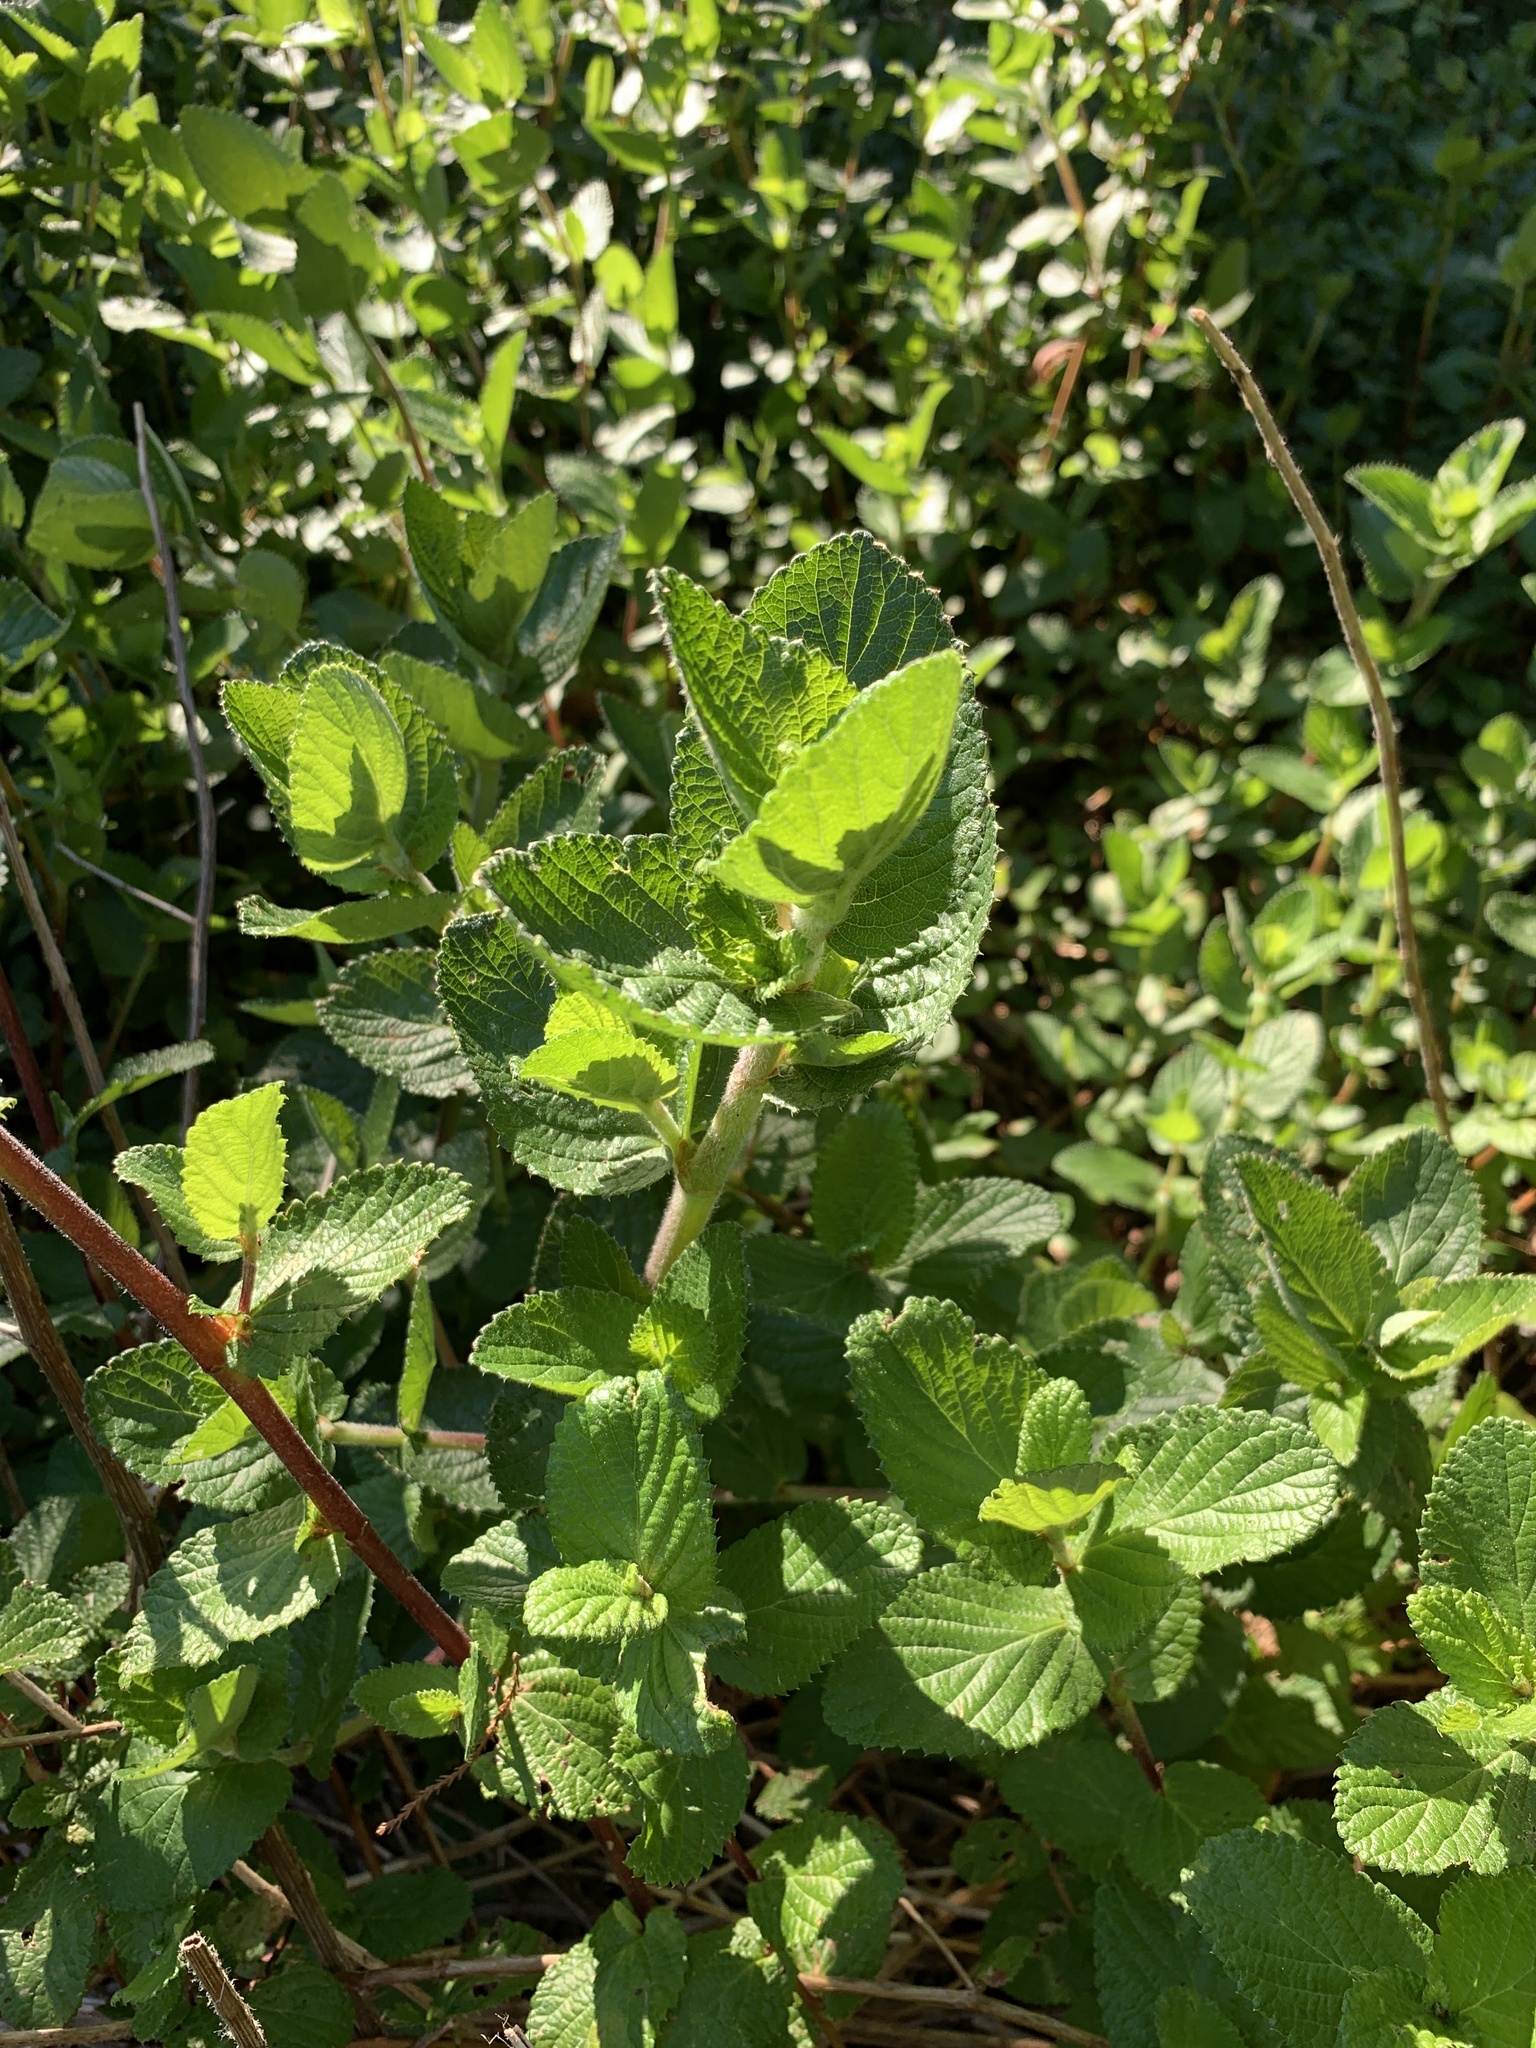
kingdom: Plantae
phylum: Tracheophyta
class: Magnoliopsida
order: Rosales
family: Rosaceae
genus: Cliffortia
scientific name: Cliffortia odorata
